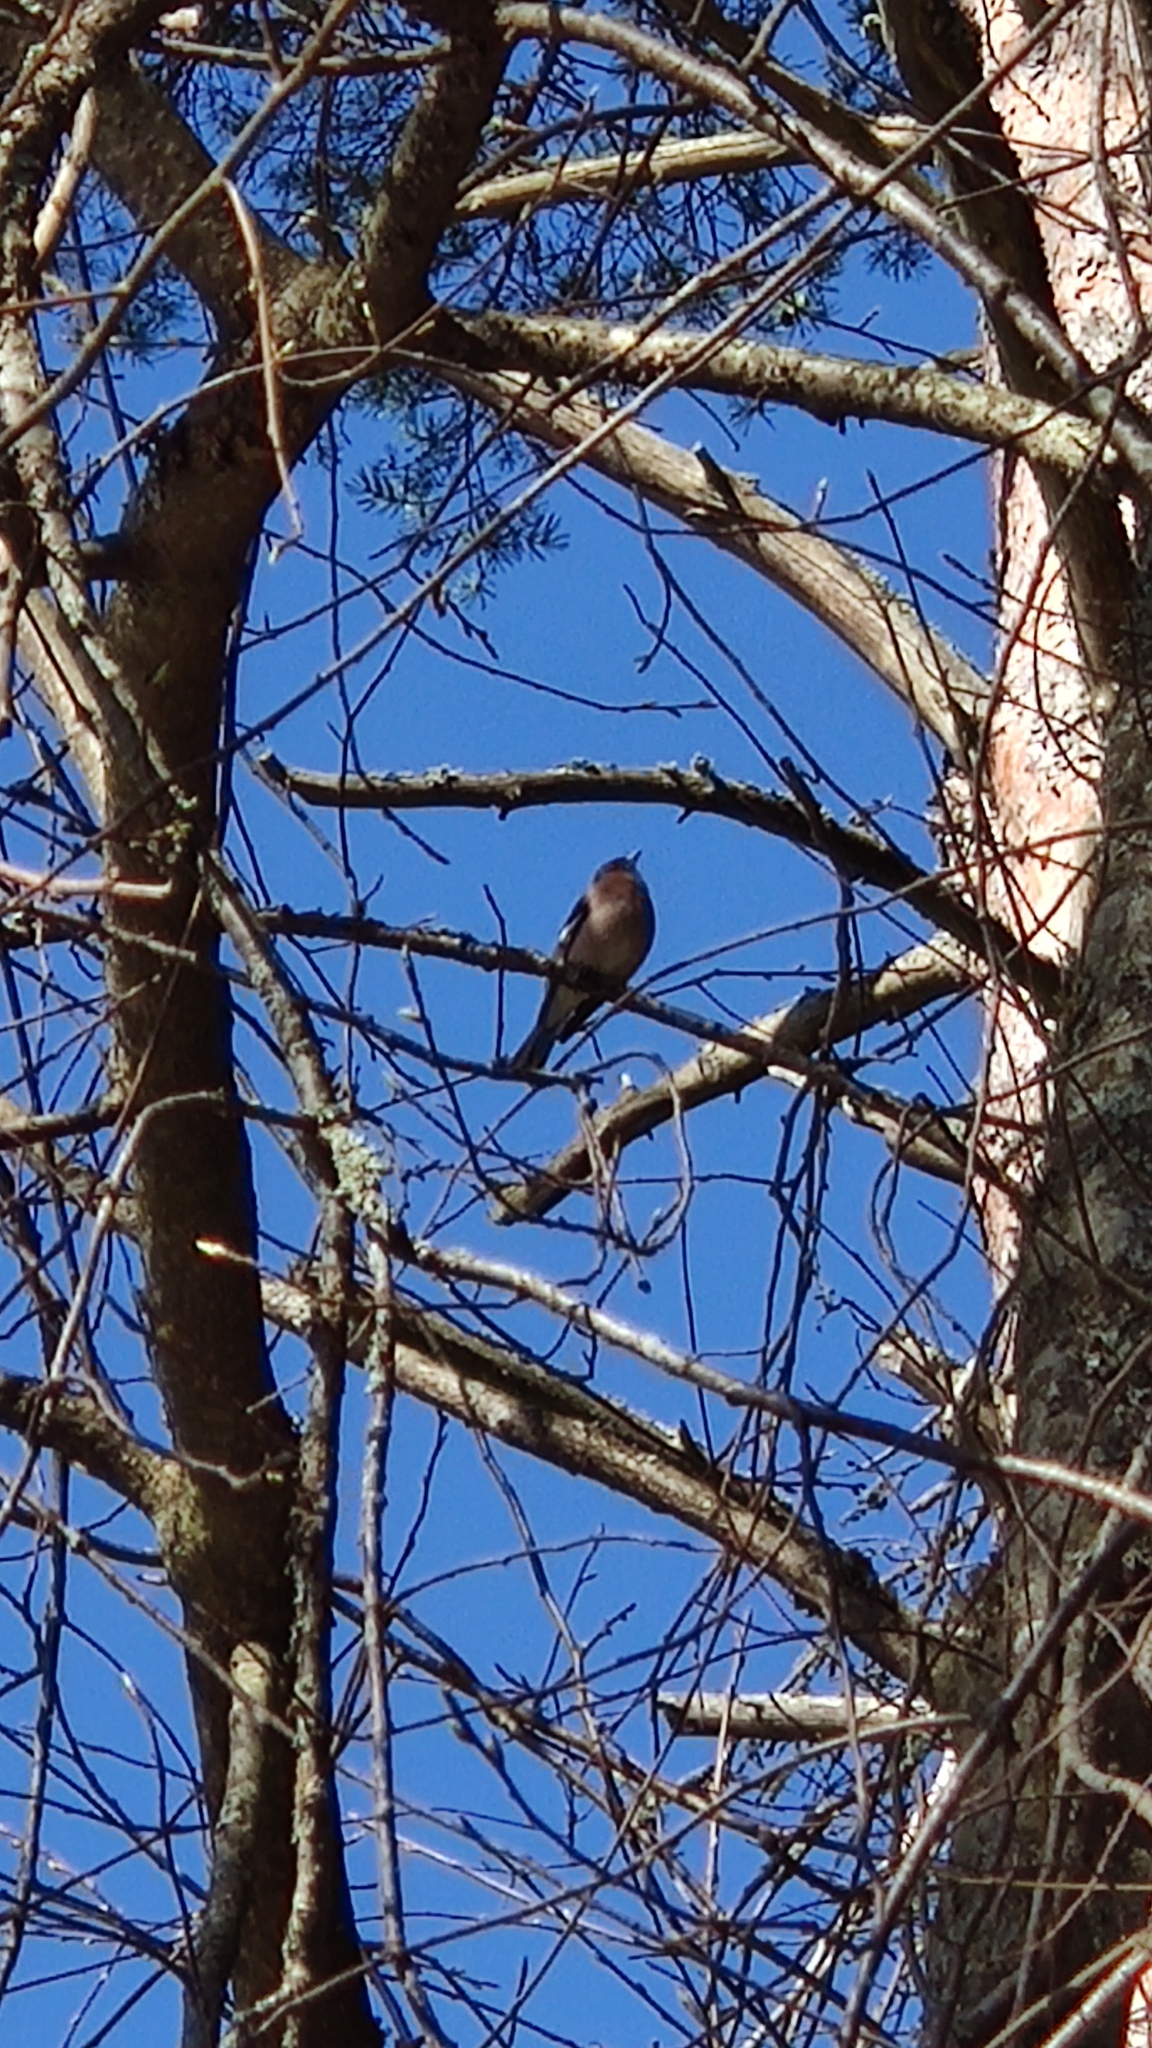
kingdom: Animalia
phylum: Chordata
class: Aves
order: Passeriformes
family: Fringillidae
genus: Fringilla
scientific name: Fringilla coelebs
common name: Common chaffinch
